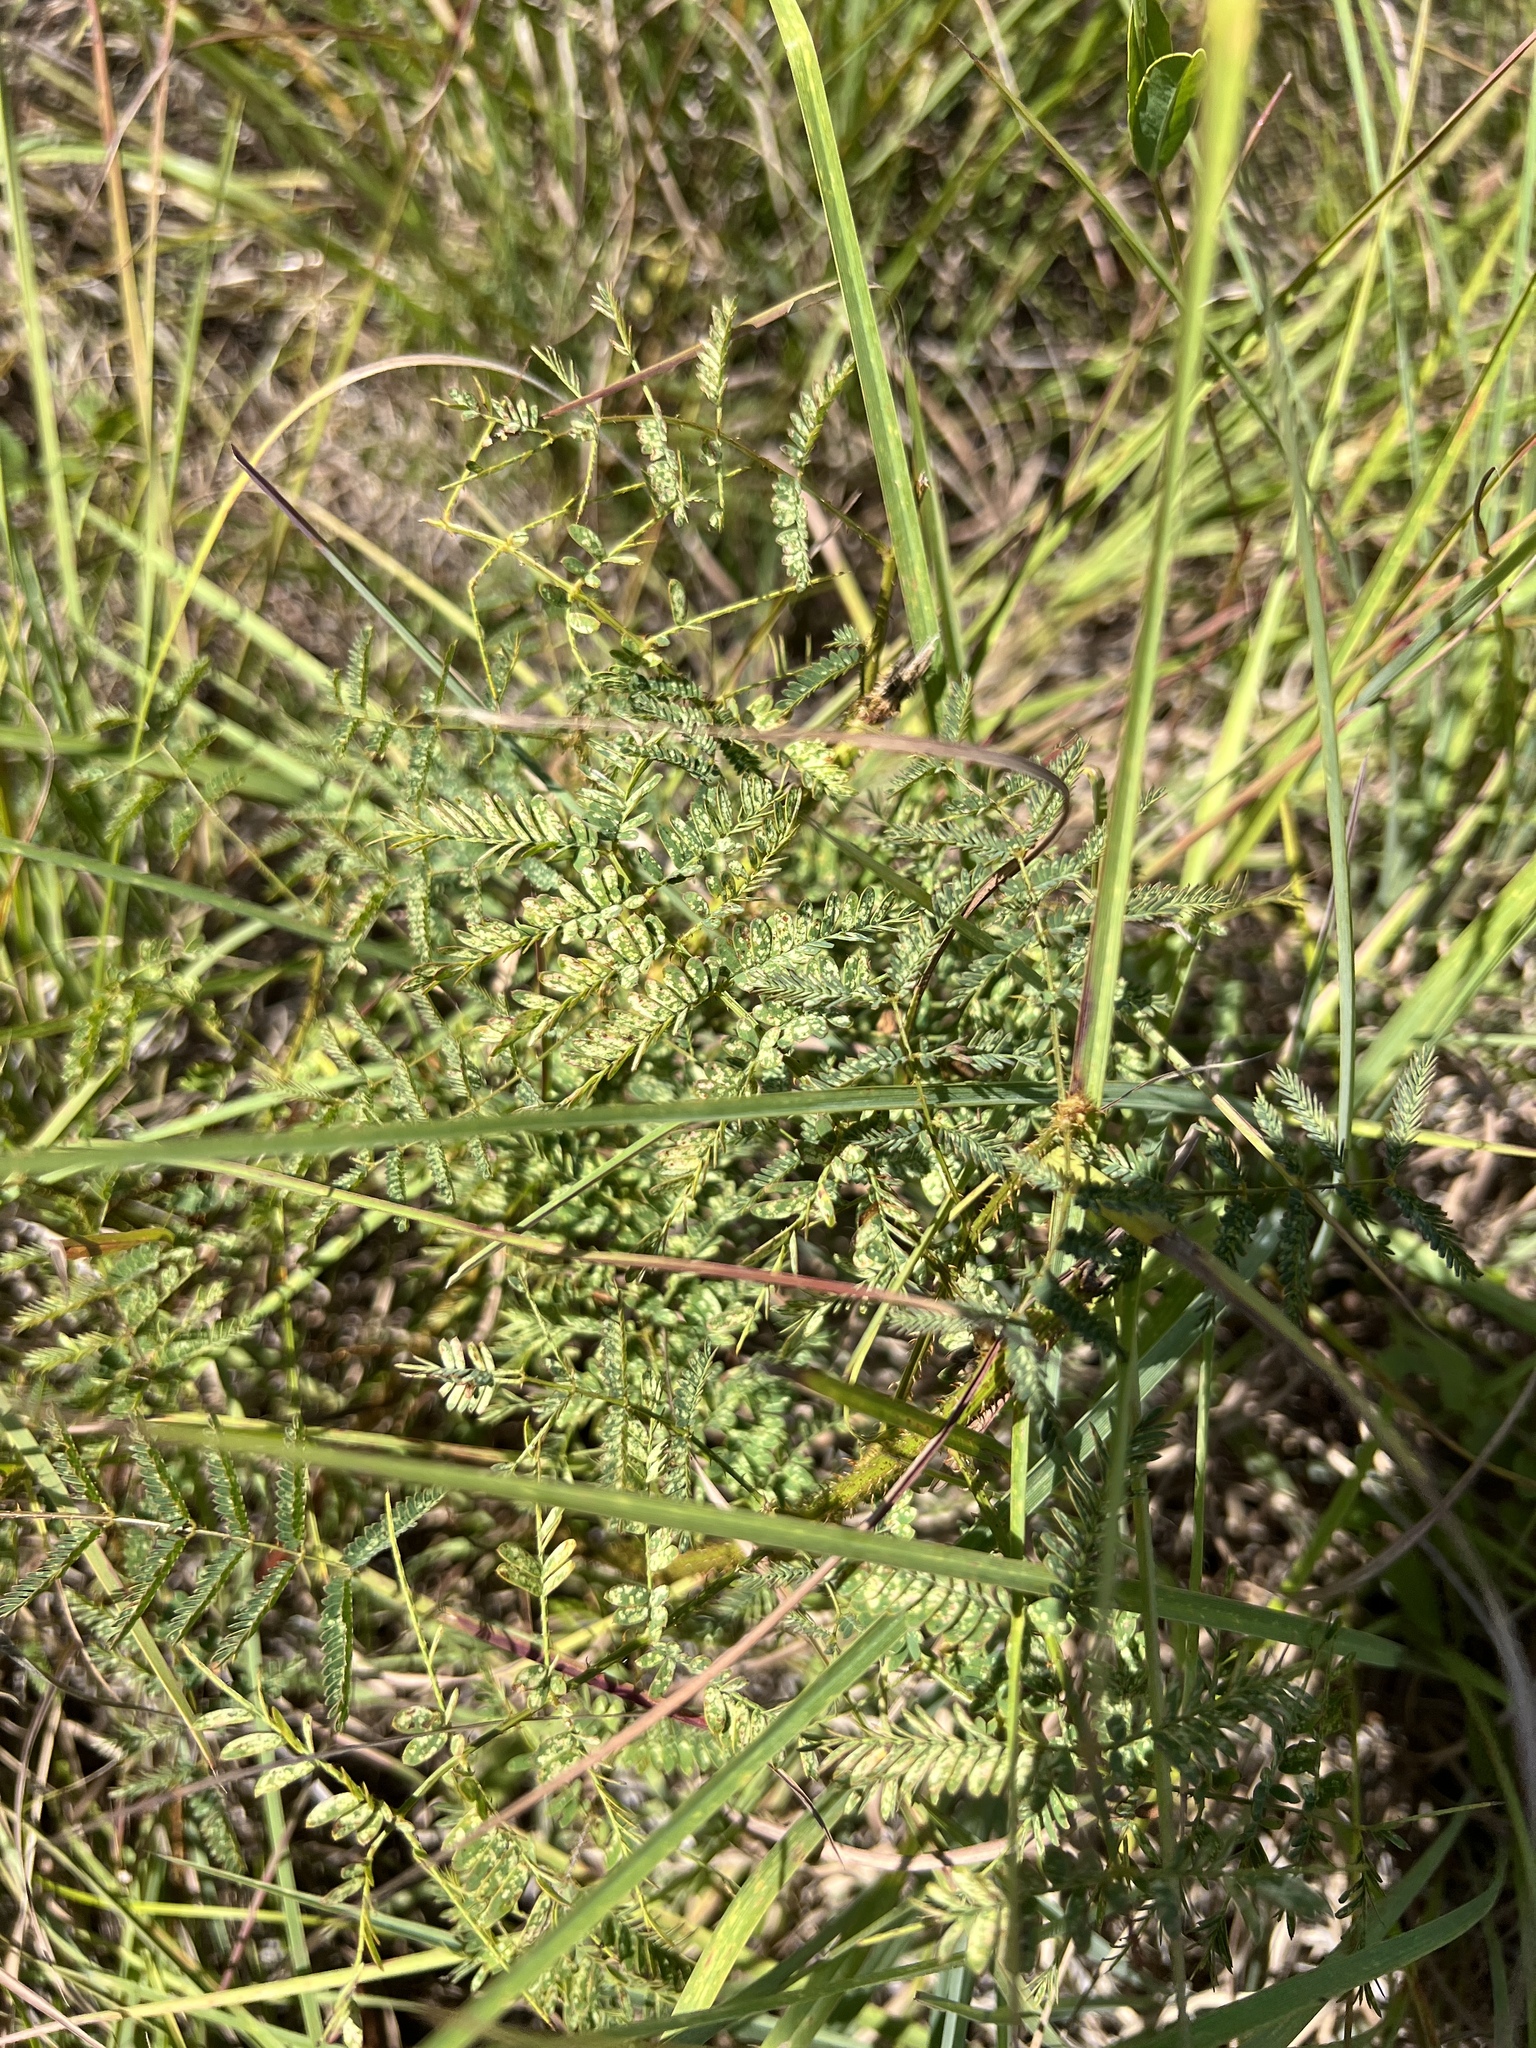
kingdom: Plantae
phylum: Tracheophyta
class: Magnoliopsida
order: Fabales
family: Fabaceae
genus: Mimosa
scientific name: Mimosa quadrivalvis
